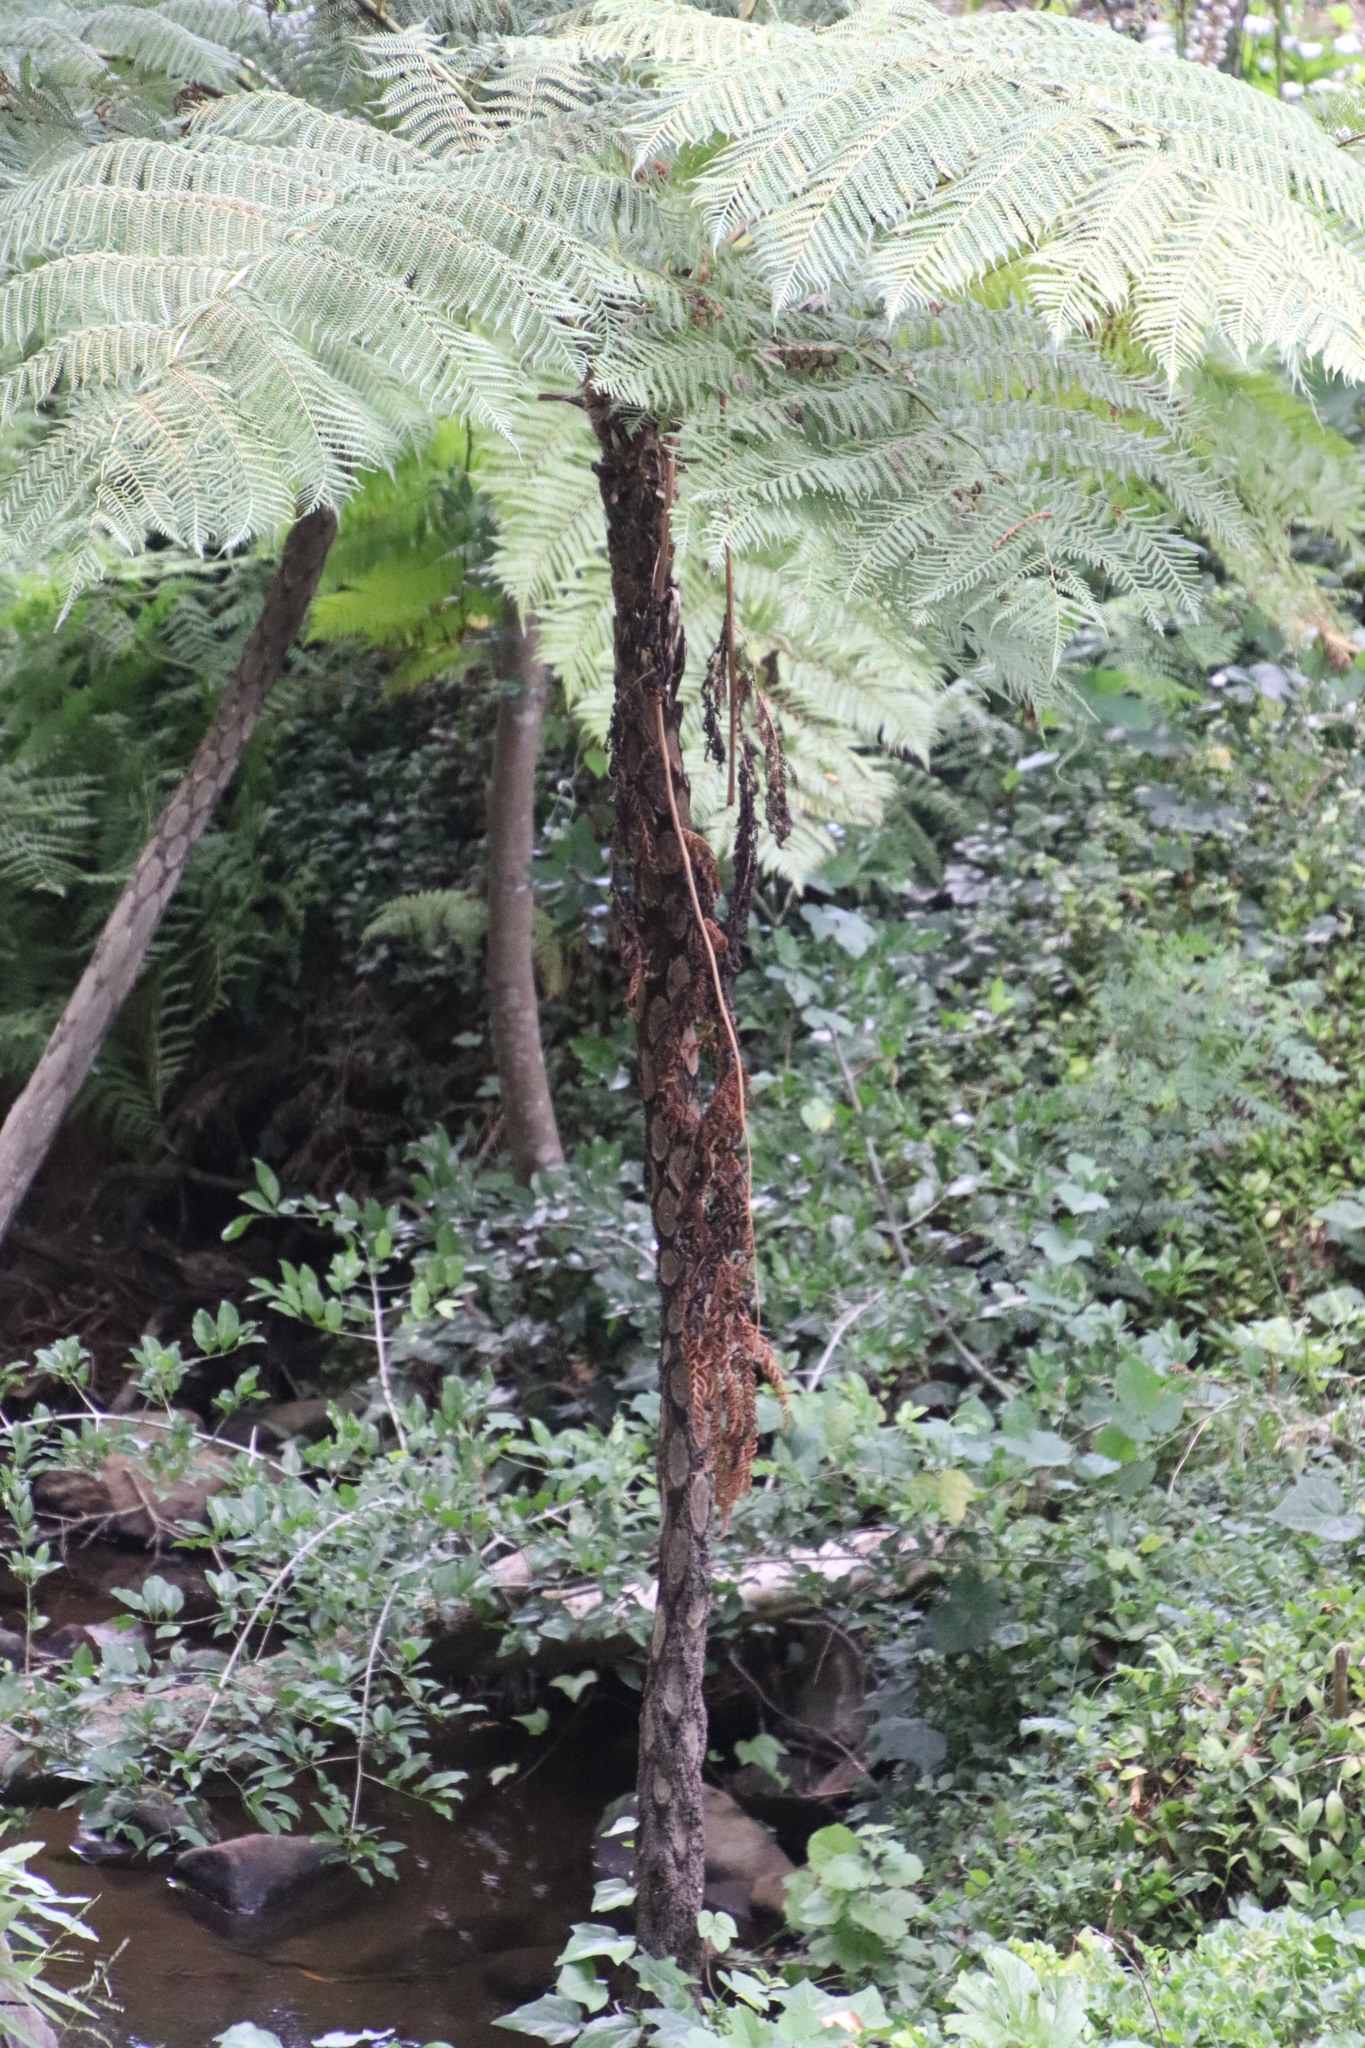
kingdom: Plantae
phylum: Tracheophyta
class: Polypodiopsida
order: Cyatheales
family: Cyatheaceae
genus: Sphaeropteris
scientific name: Sphaeropteris cooperi
